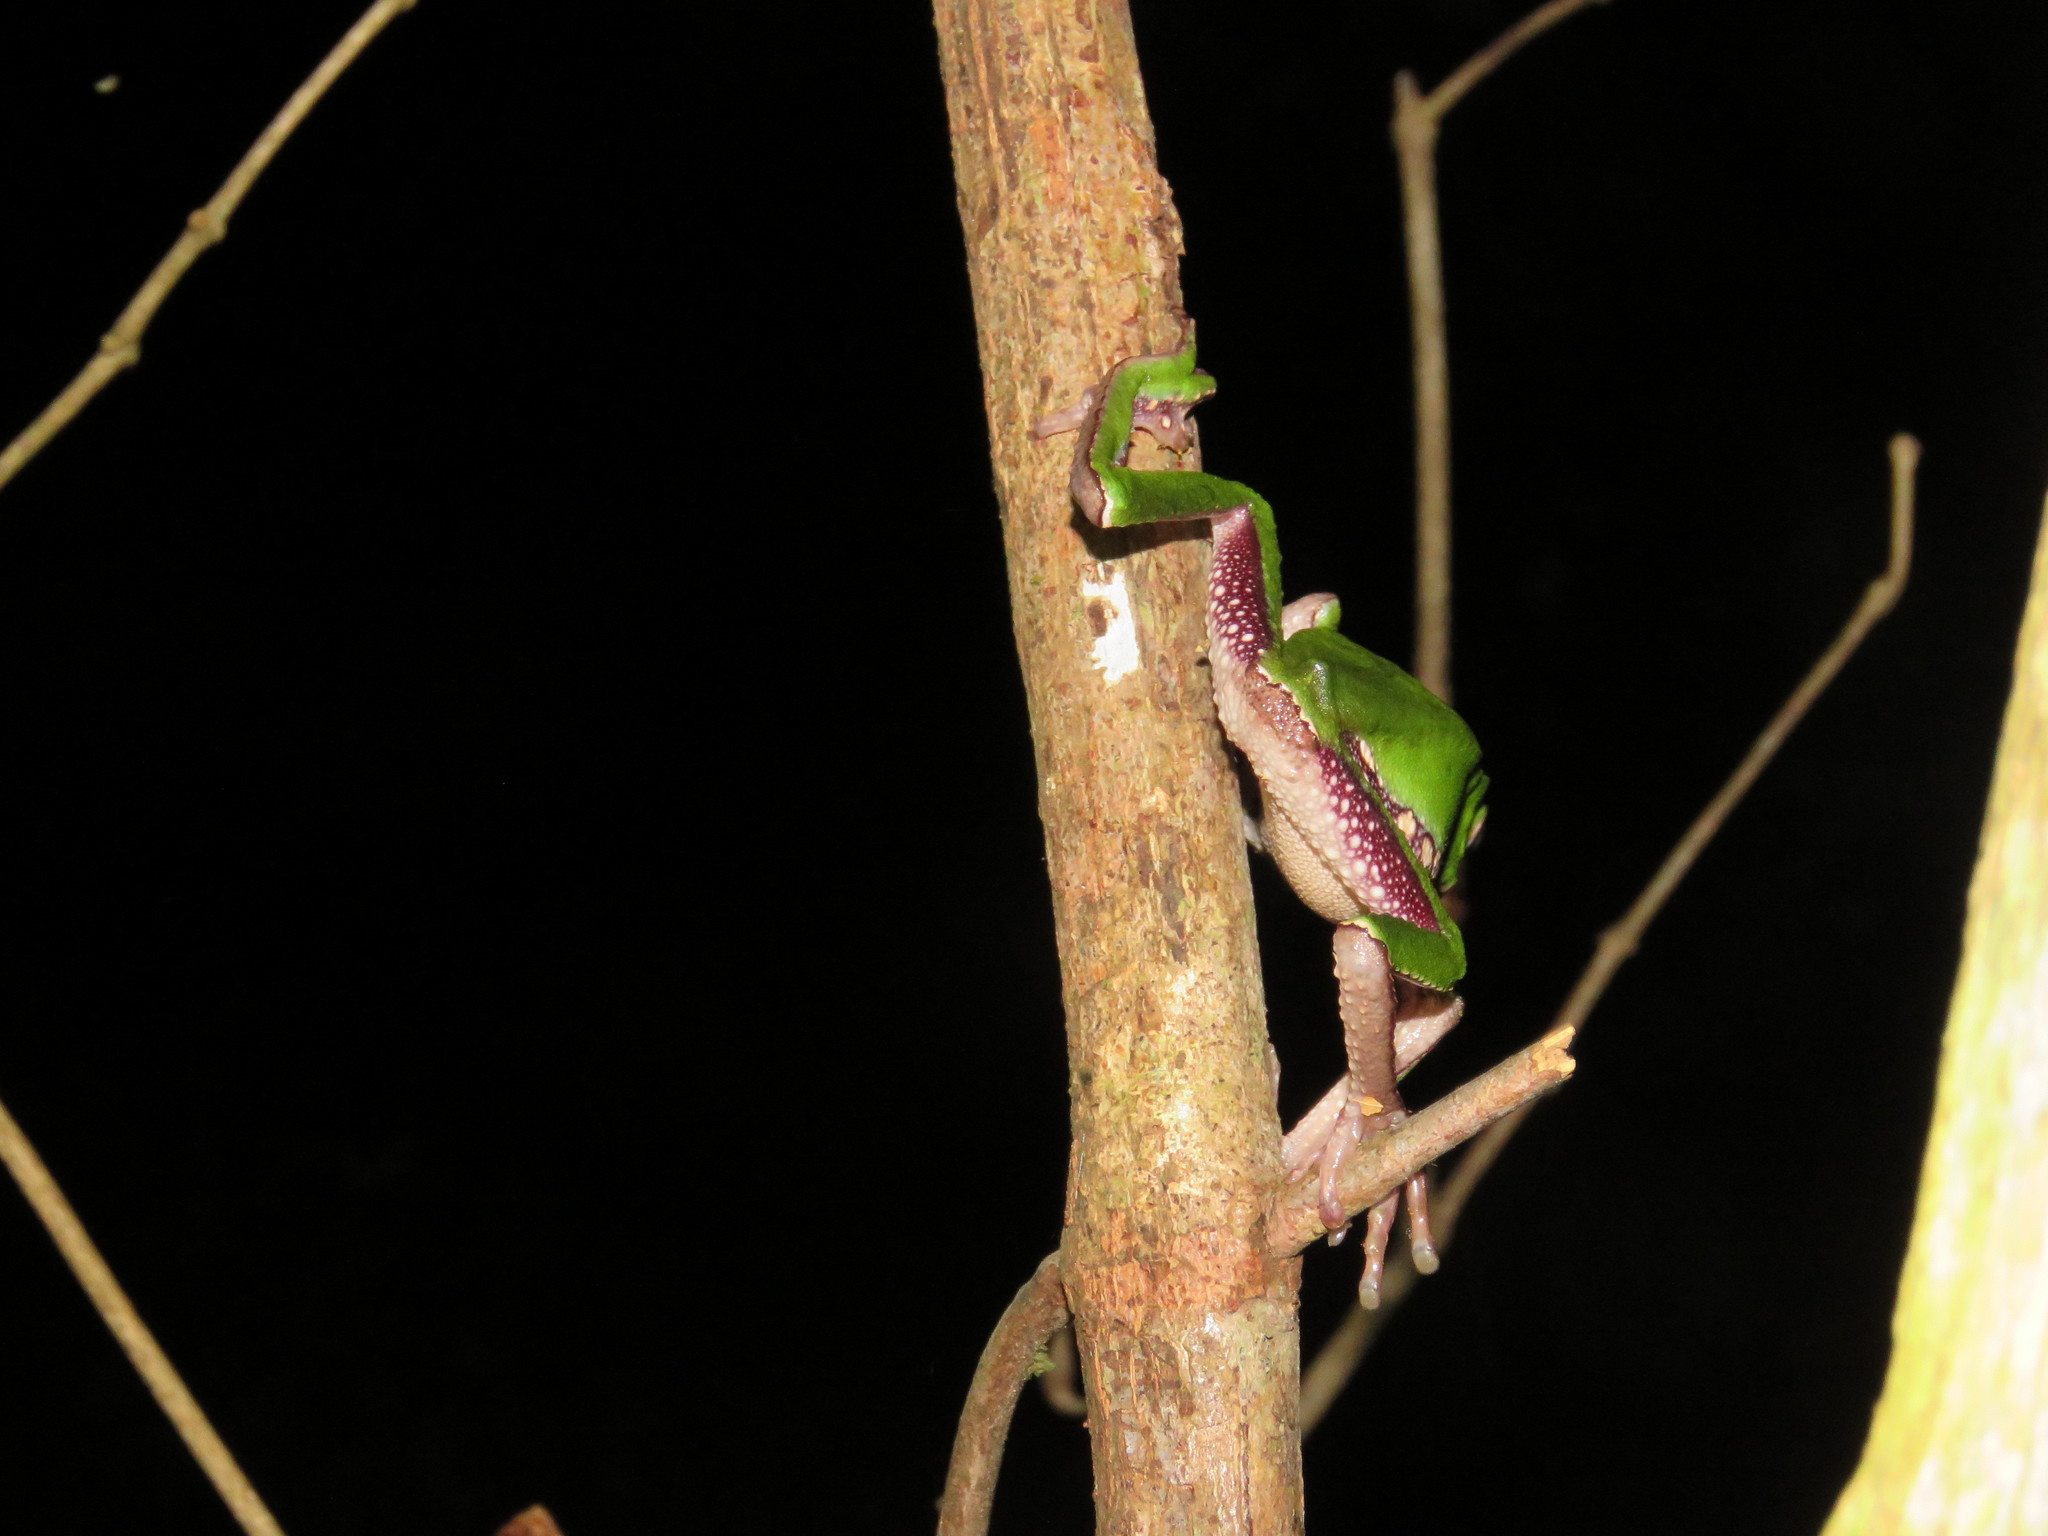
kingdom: Animalia
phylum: Chordata
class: Amphibia
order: Anura
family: Phyllomedusidae
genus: Phyllomedusa
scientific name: Phyllomedusa vaillantii
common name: White-lined leaf frog
